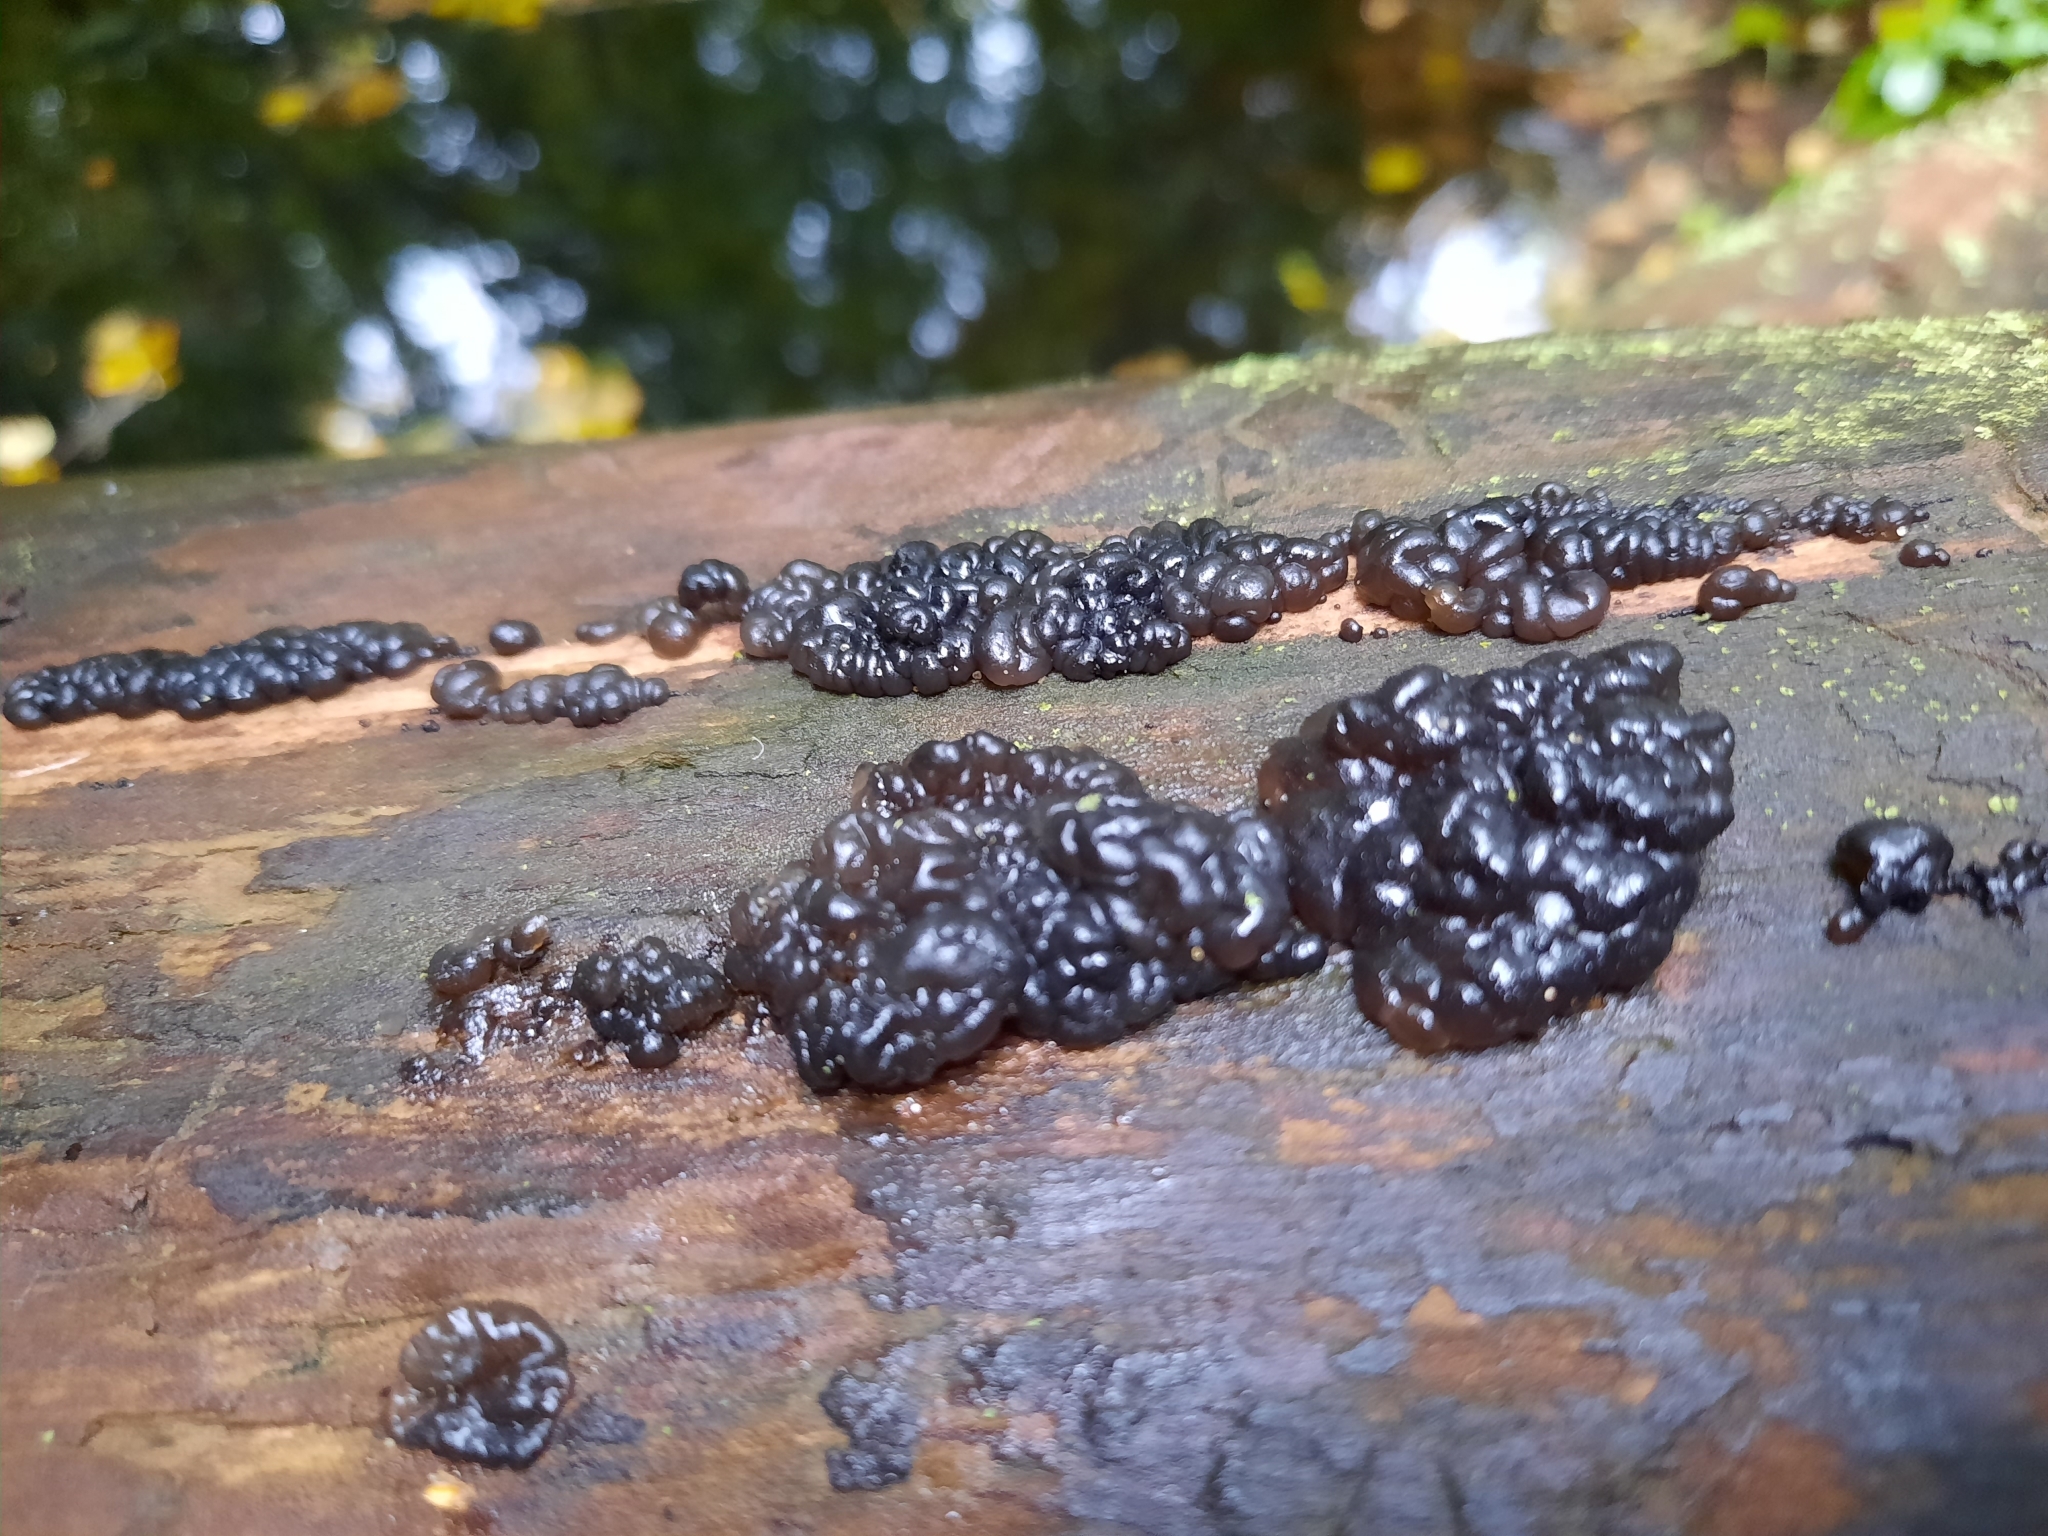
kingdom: Fungi
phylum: Basidiomycota
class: Agaricomycetes
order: Auriculariales
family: Auriculariaceae
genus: Exidia
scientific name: Exidia glandulosa
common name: Witches' butter
